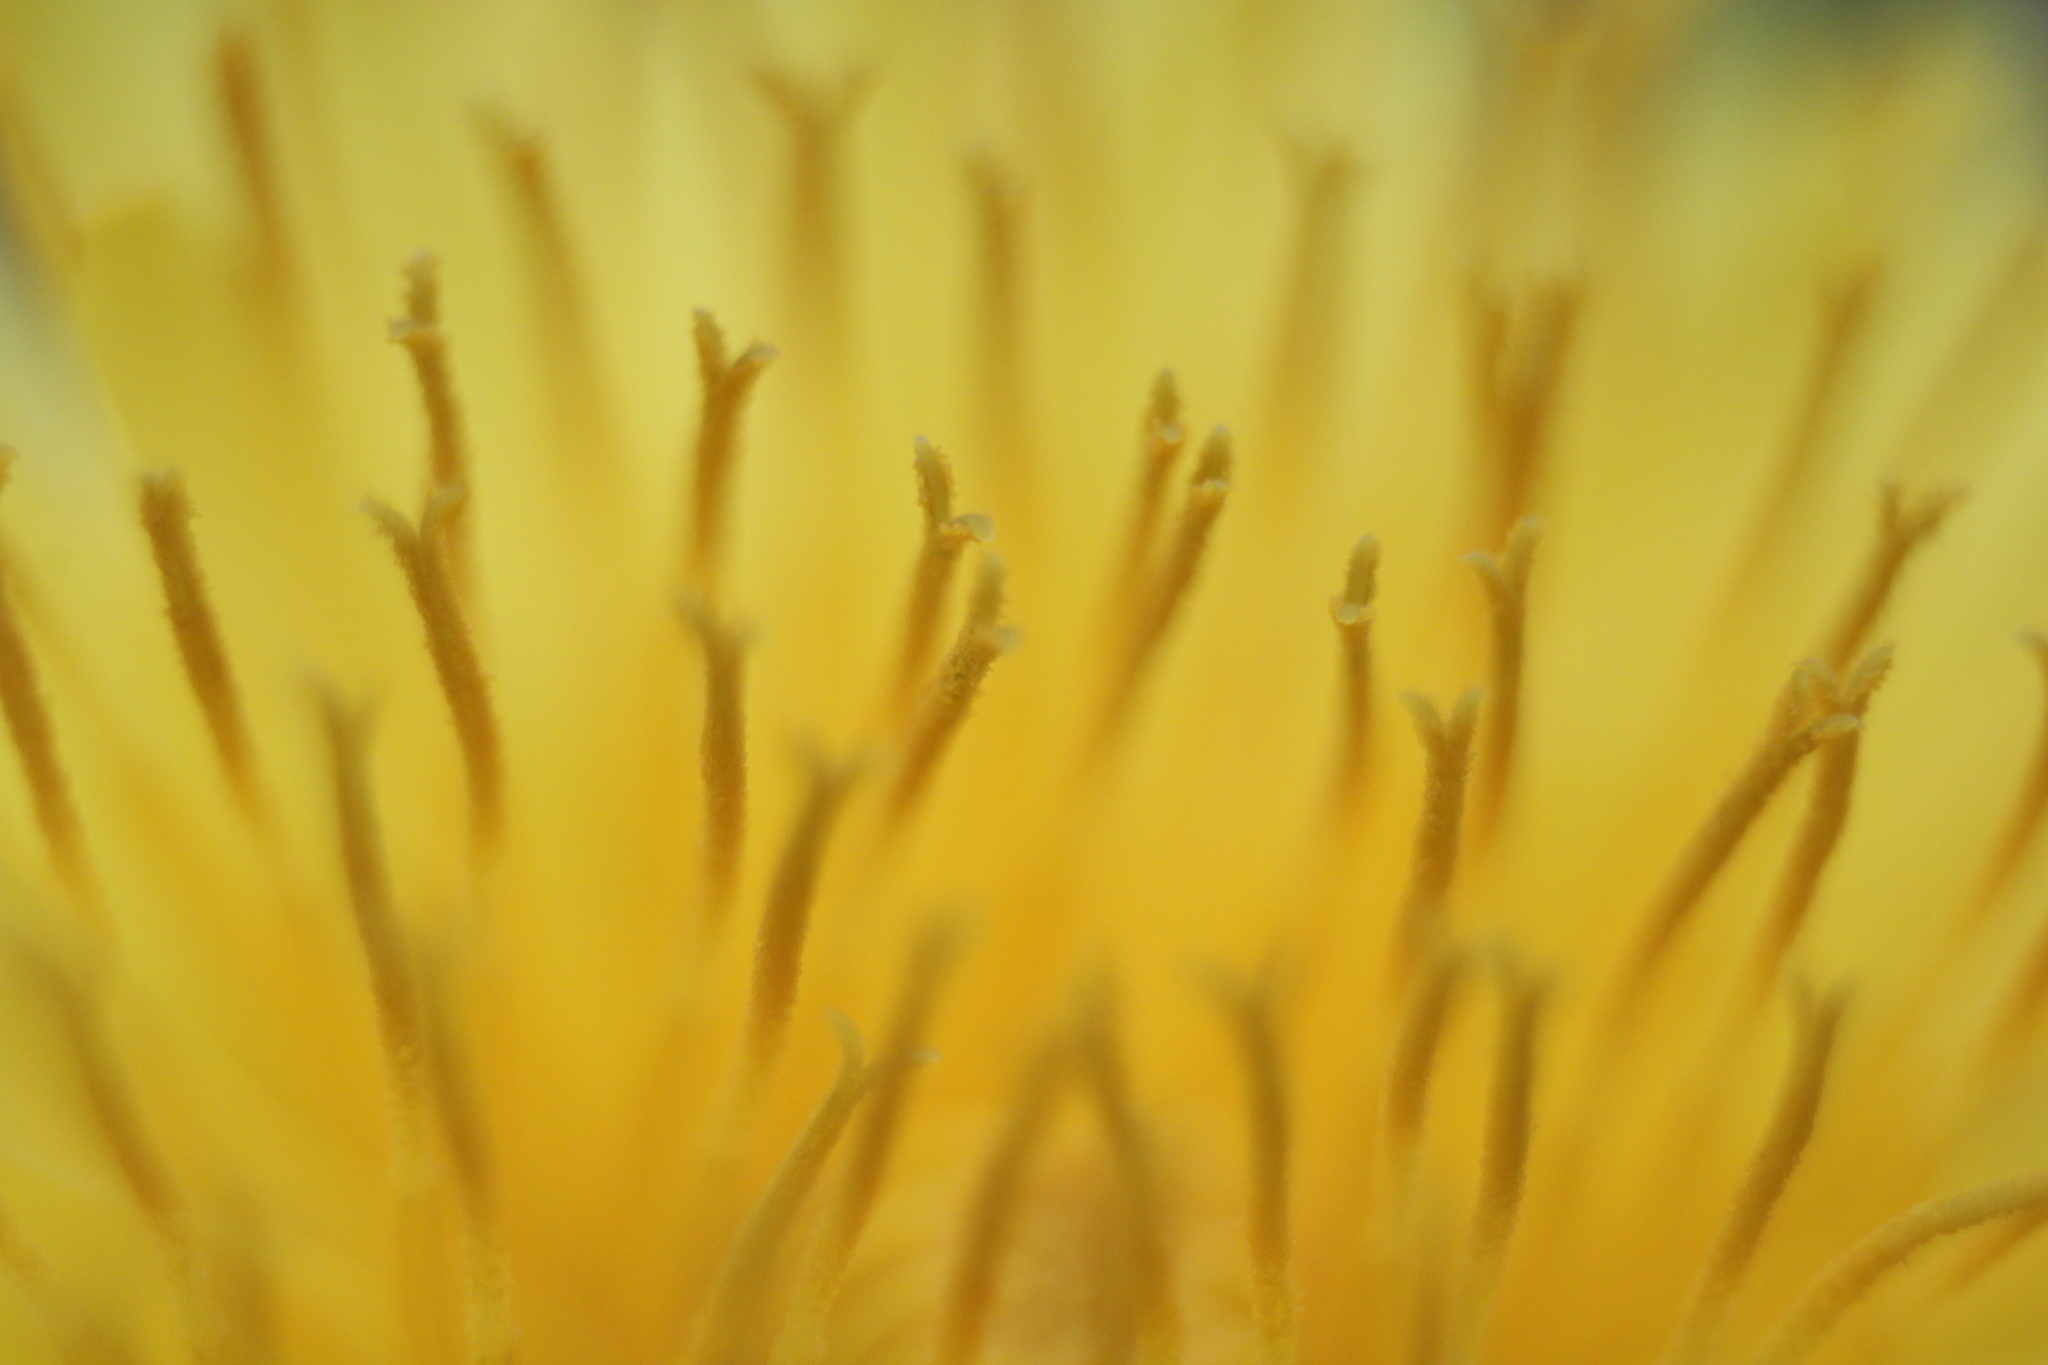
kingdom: Plantae
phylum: Tracheophyta
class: Magnoliopsida
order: Asterales
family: Asteraceae
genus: Taraxacum
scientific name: Taraxacum officinale
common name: Common dandelion
